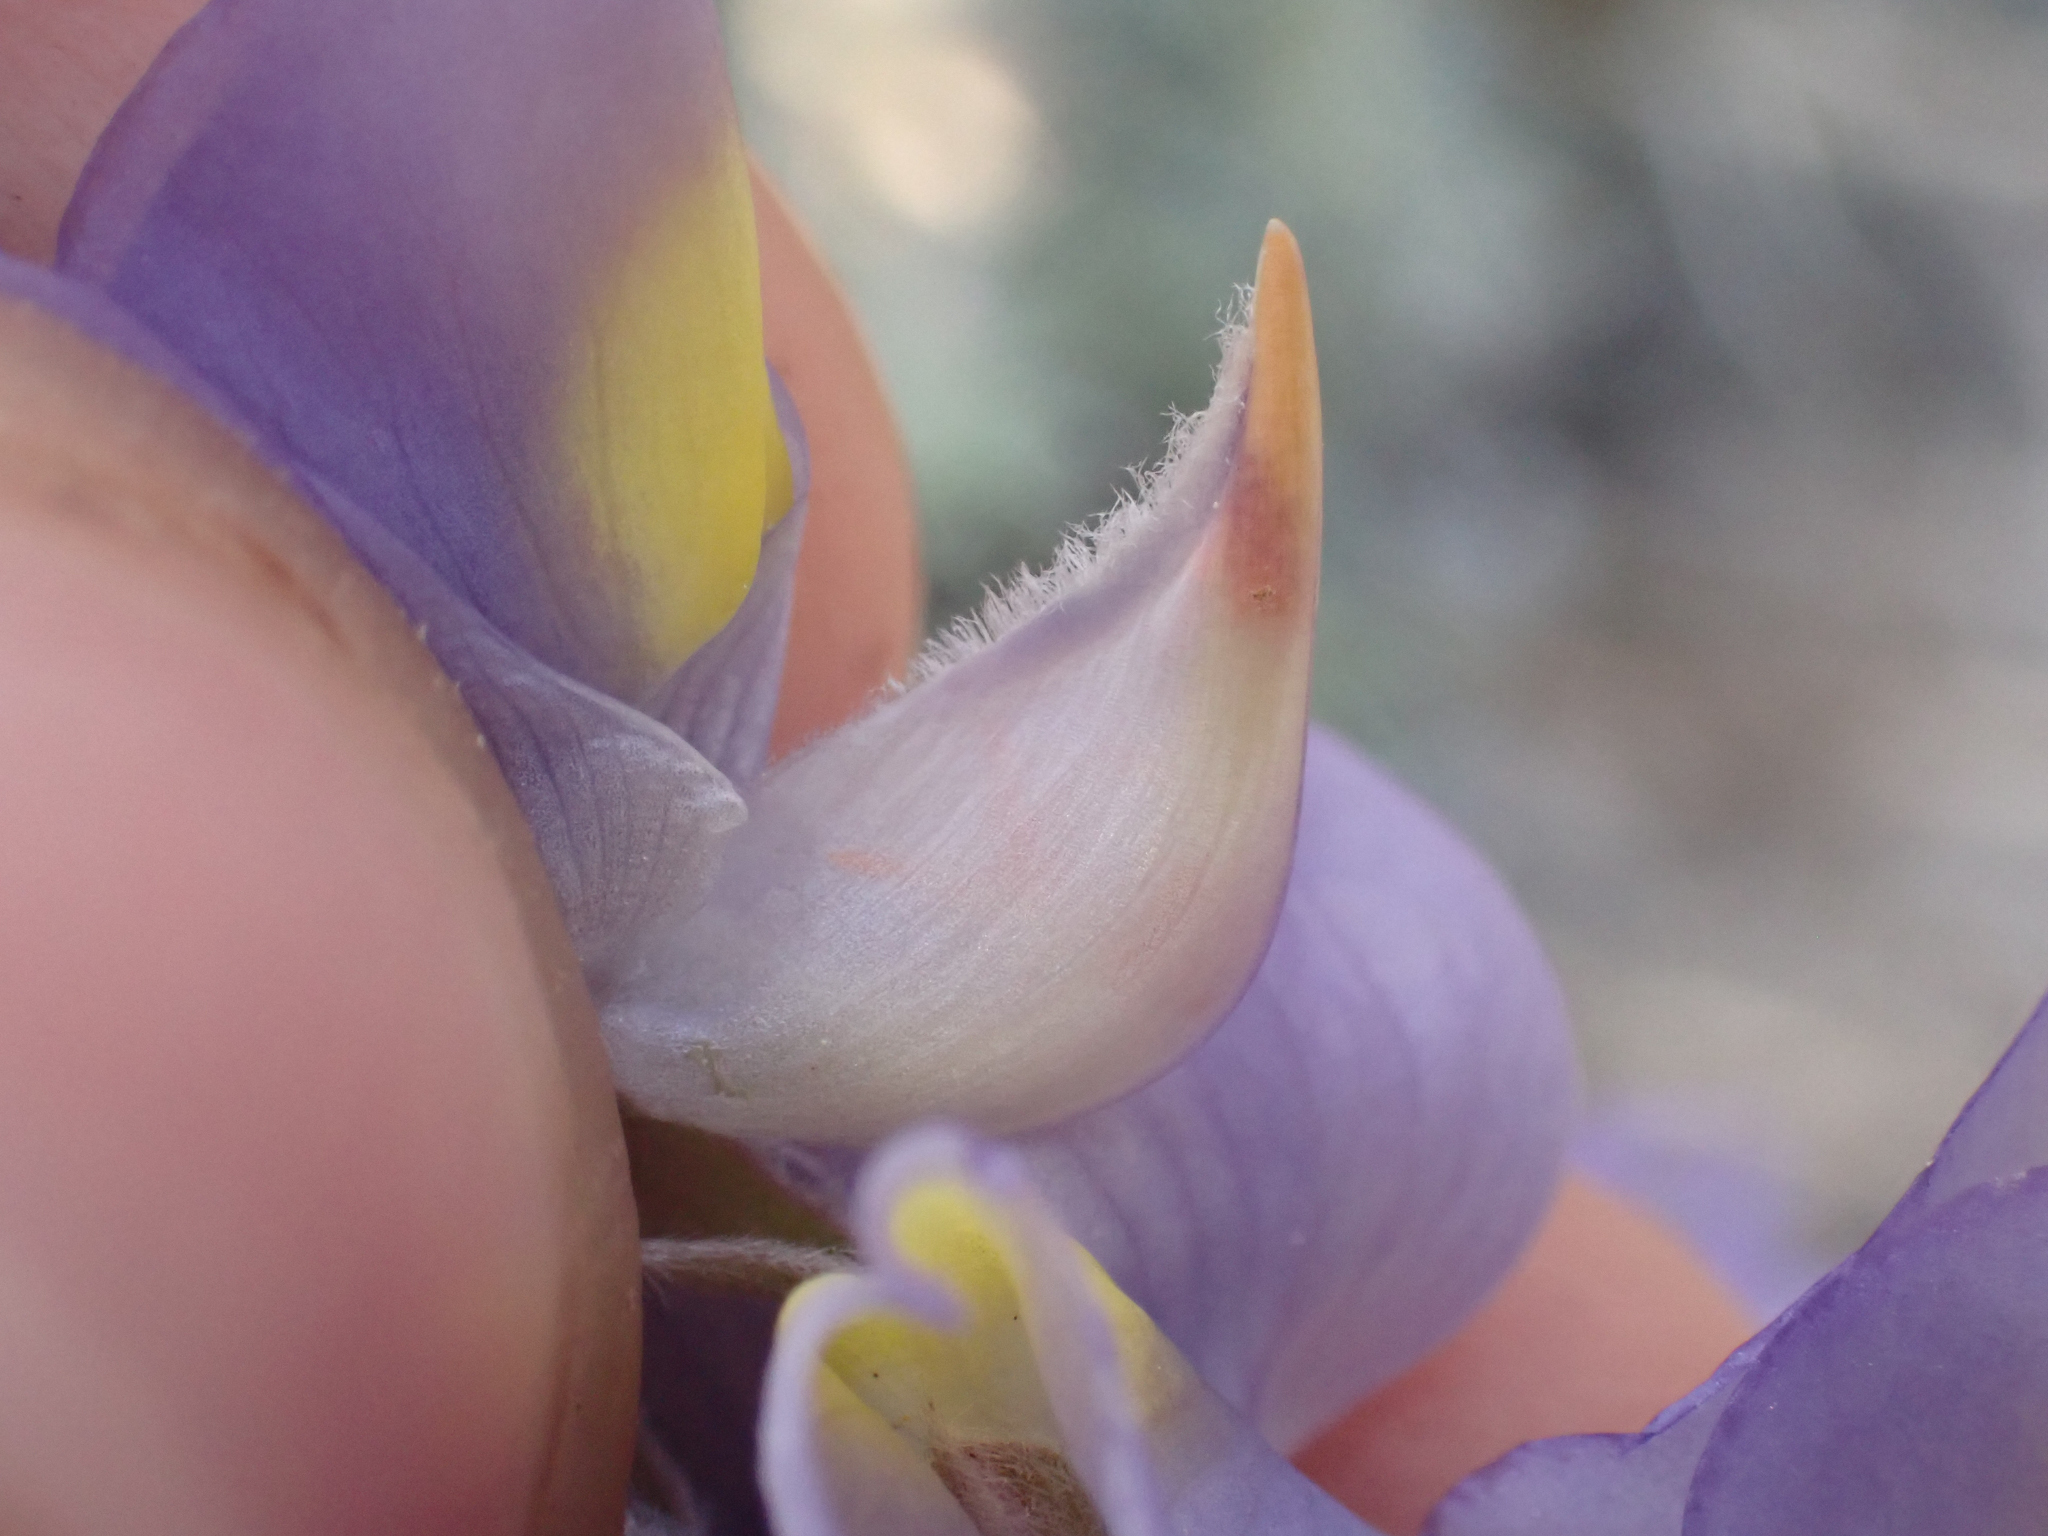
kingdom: Plantae
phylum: Tracheophyta
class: Magnoliopsida
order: Fabales
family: Fabaceae
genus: Lupinus
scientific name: Lupinus grayi
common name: Sierra lupine
